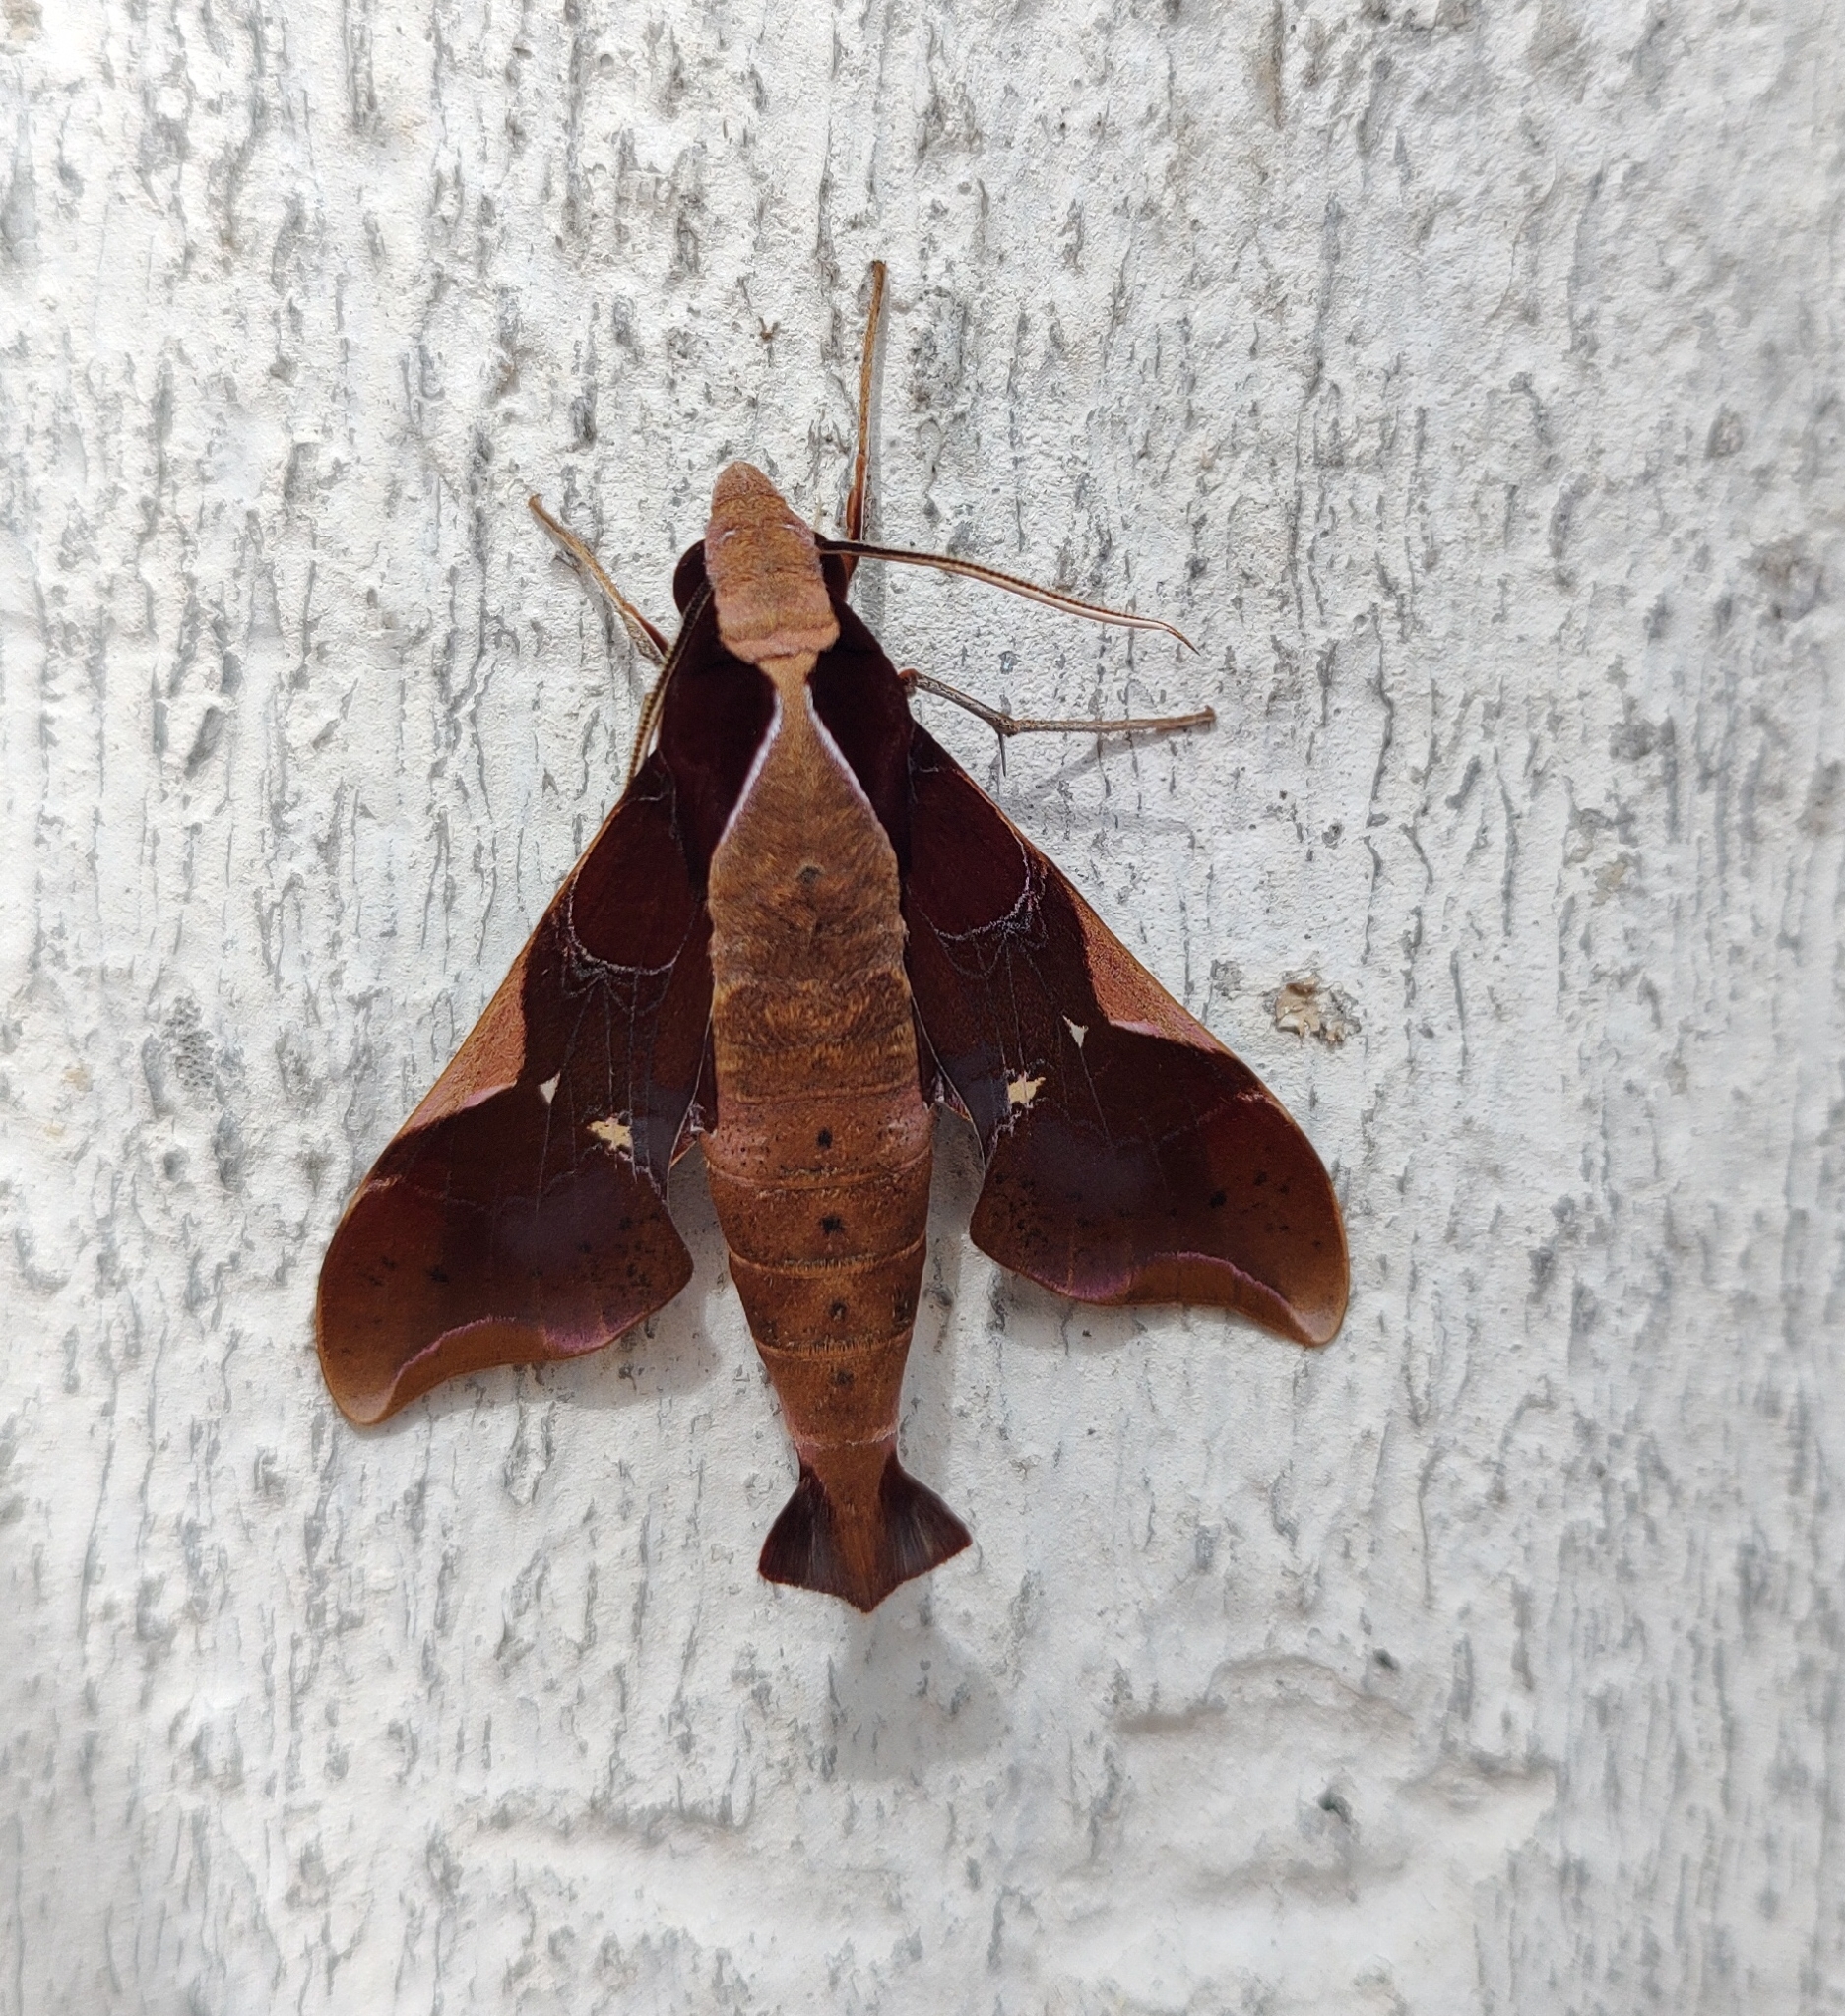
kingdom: Animalia
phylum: Arthropoda
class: Insecta
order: Lepidoptera
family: Sphingidae
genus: Callionima
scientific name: Callionima nomius
